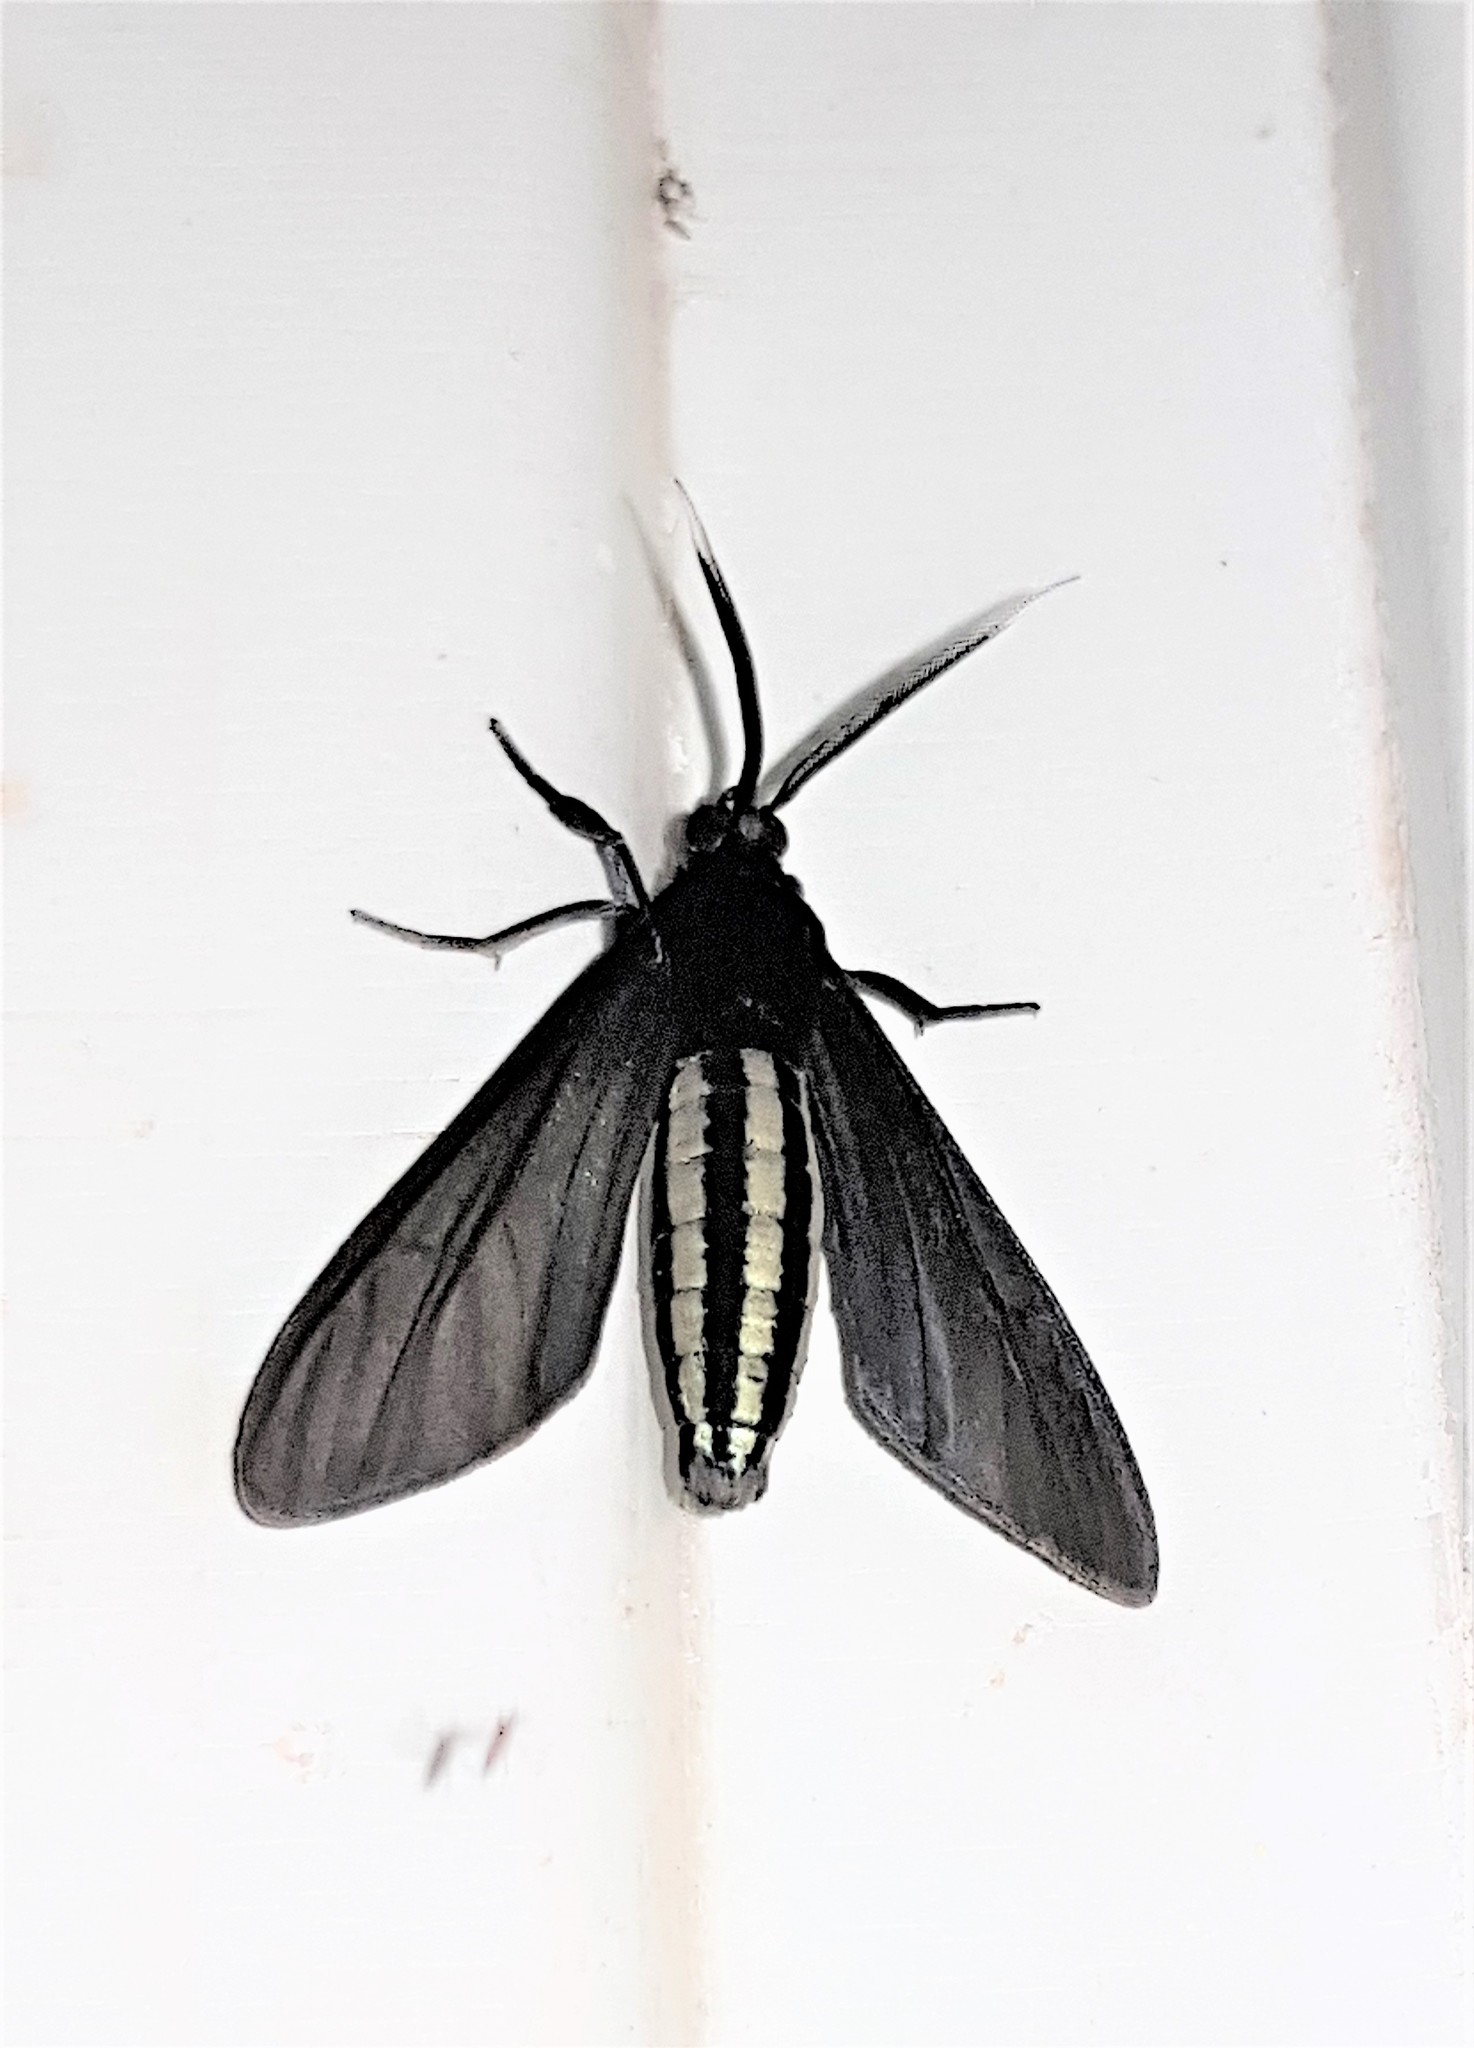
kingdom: Animalia
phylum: Arthropoda
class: Insecta
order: Lepidoptera
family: Erebidae
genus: Calonotos
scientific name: Calonotos helymus
